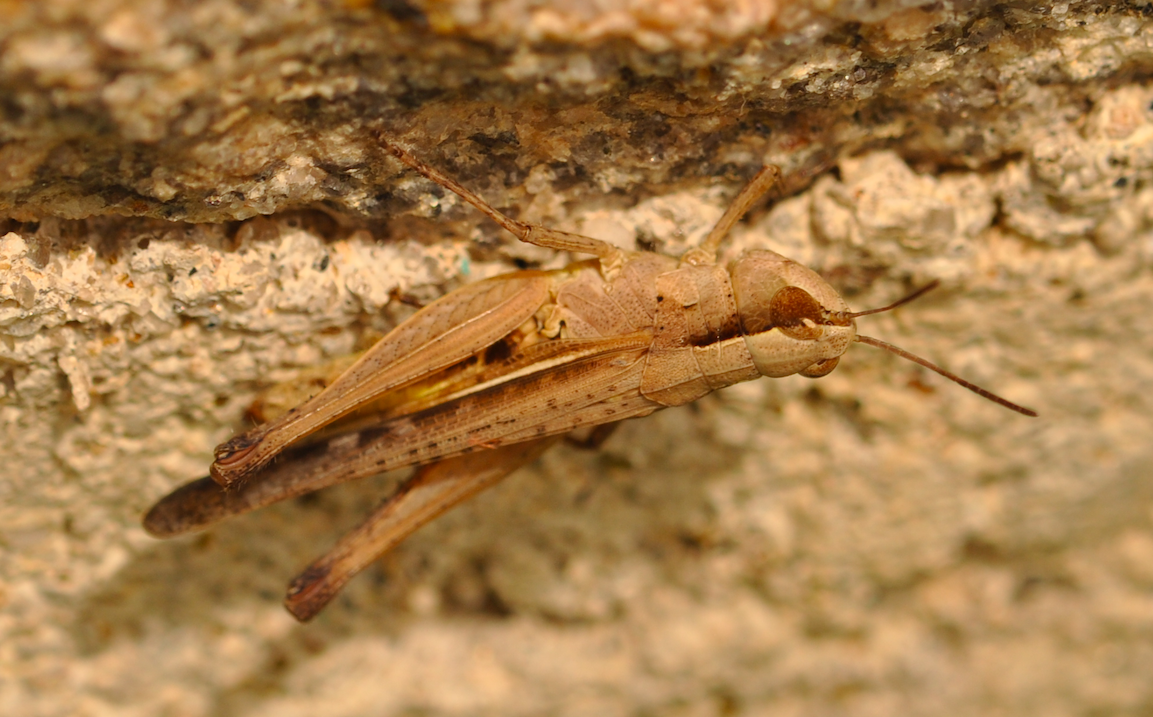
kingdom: Animalia
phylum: Arthropoda
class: Insecta
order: Orthoptera
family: Acrididae
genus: Gymnobothrus
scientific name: Gymnobothrus variabilis
